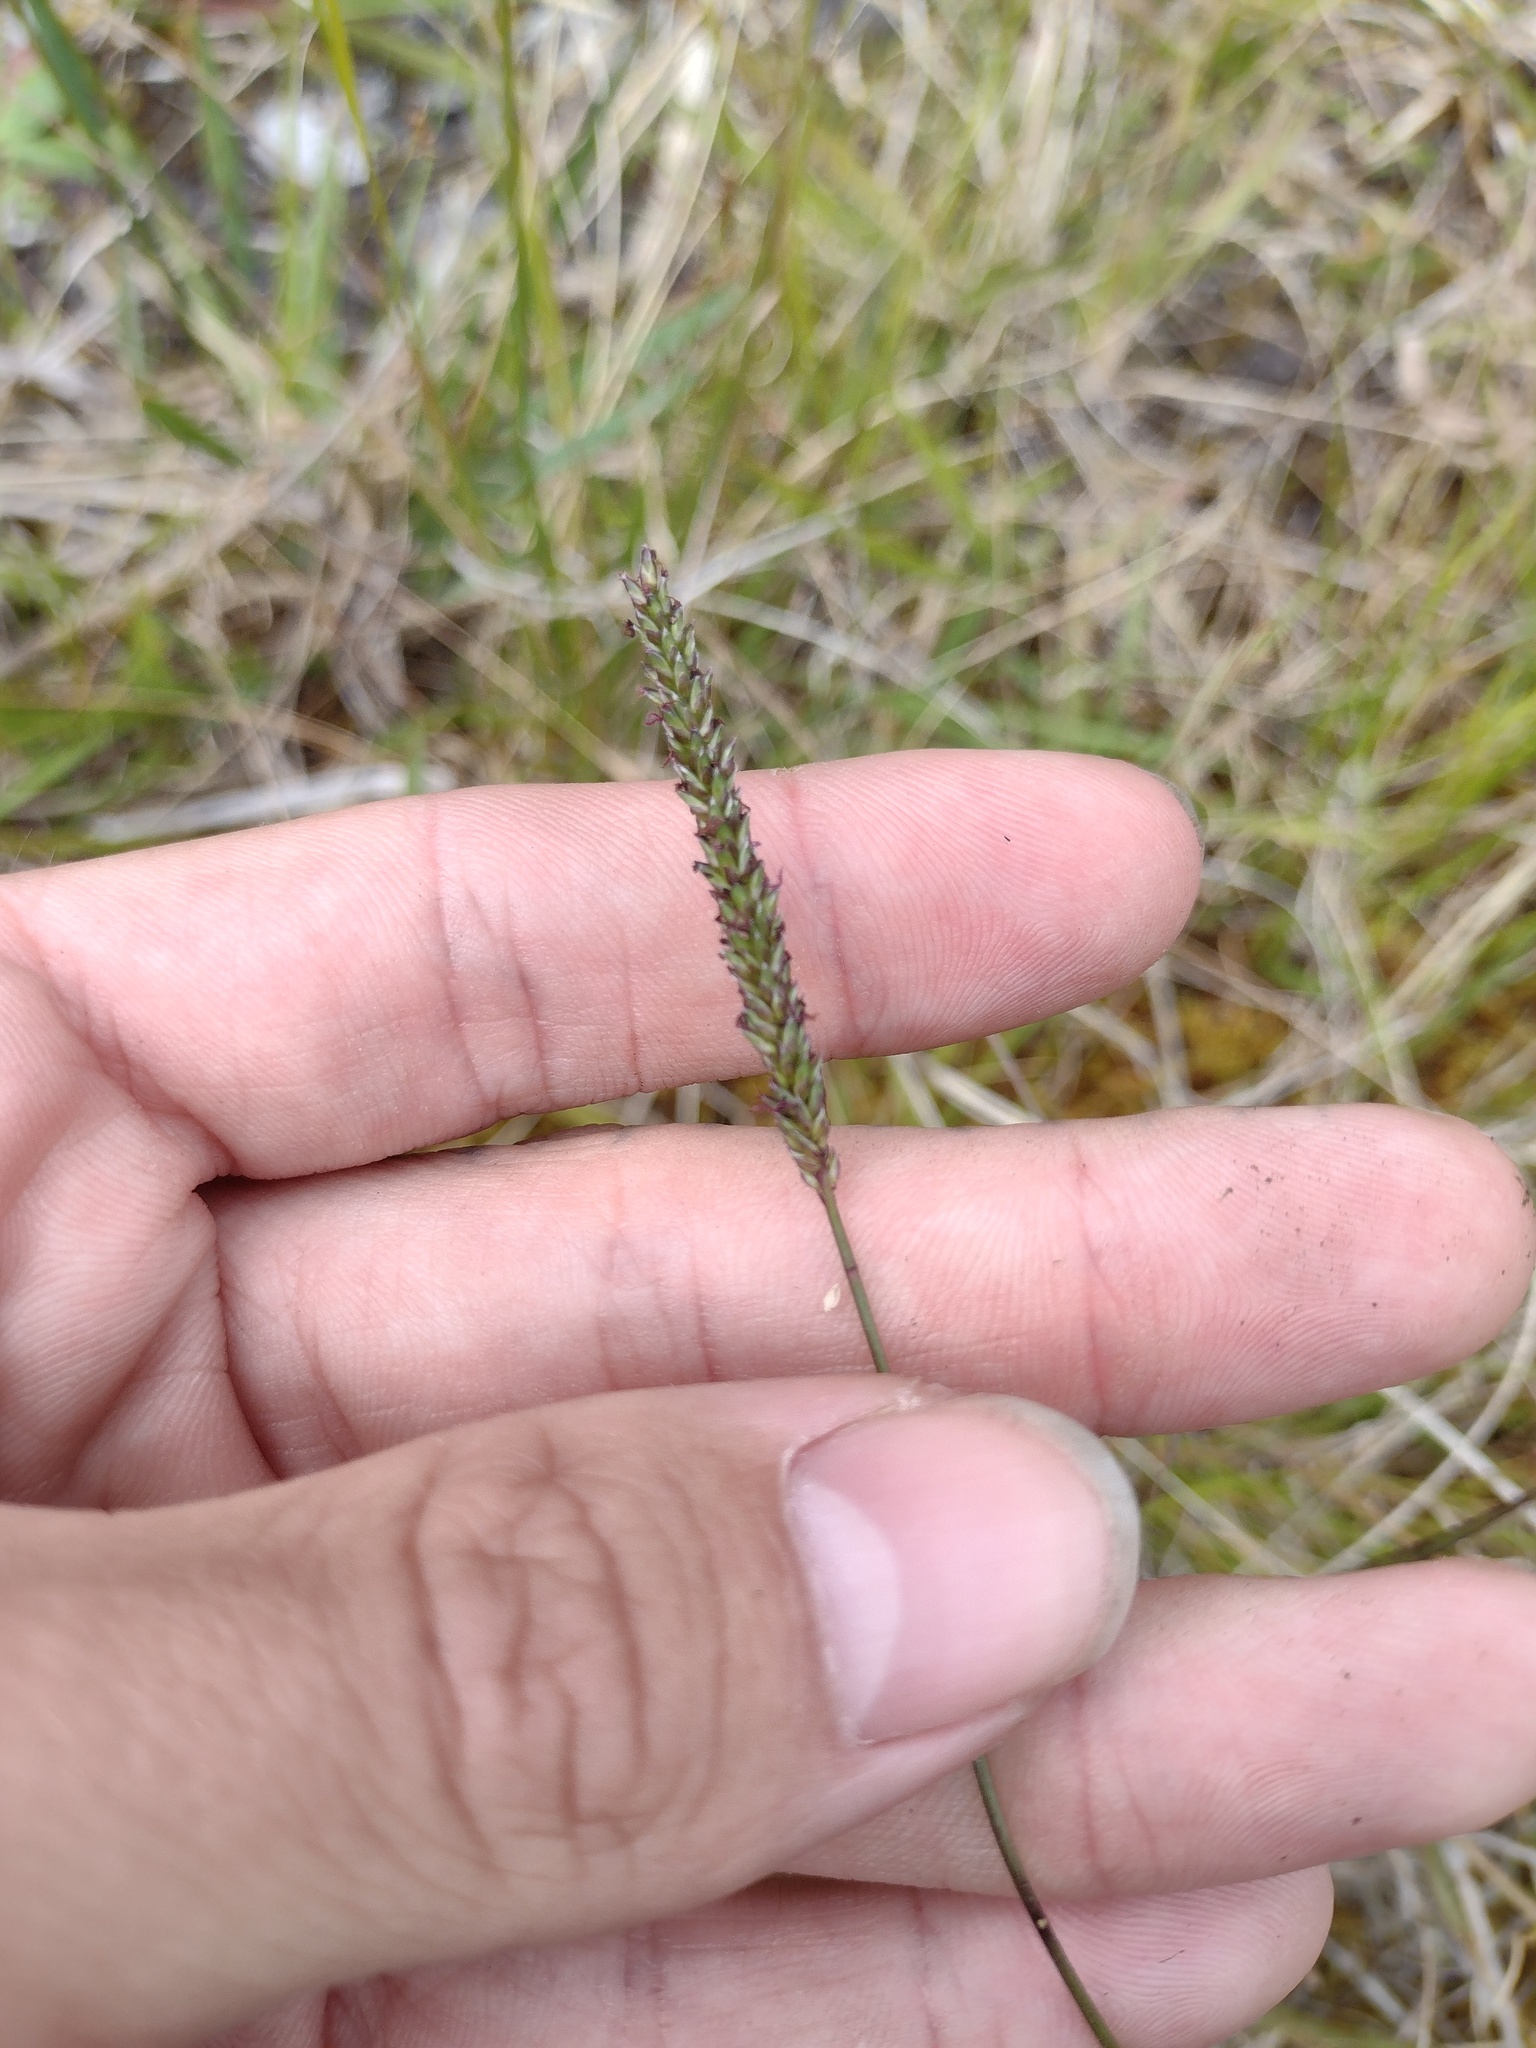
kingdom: Plantae
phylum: Tracheophyta
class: Liliopsida
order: Poales
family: Poaceae
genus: Sacciolepis
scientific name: Sacciolepis indica
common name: Glenwoodgrass
